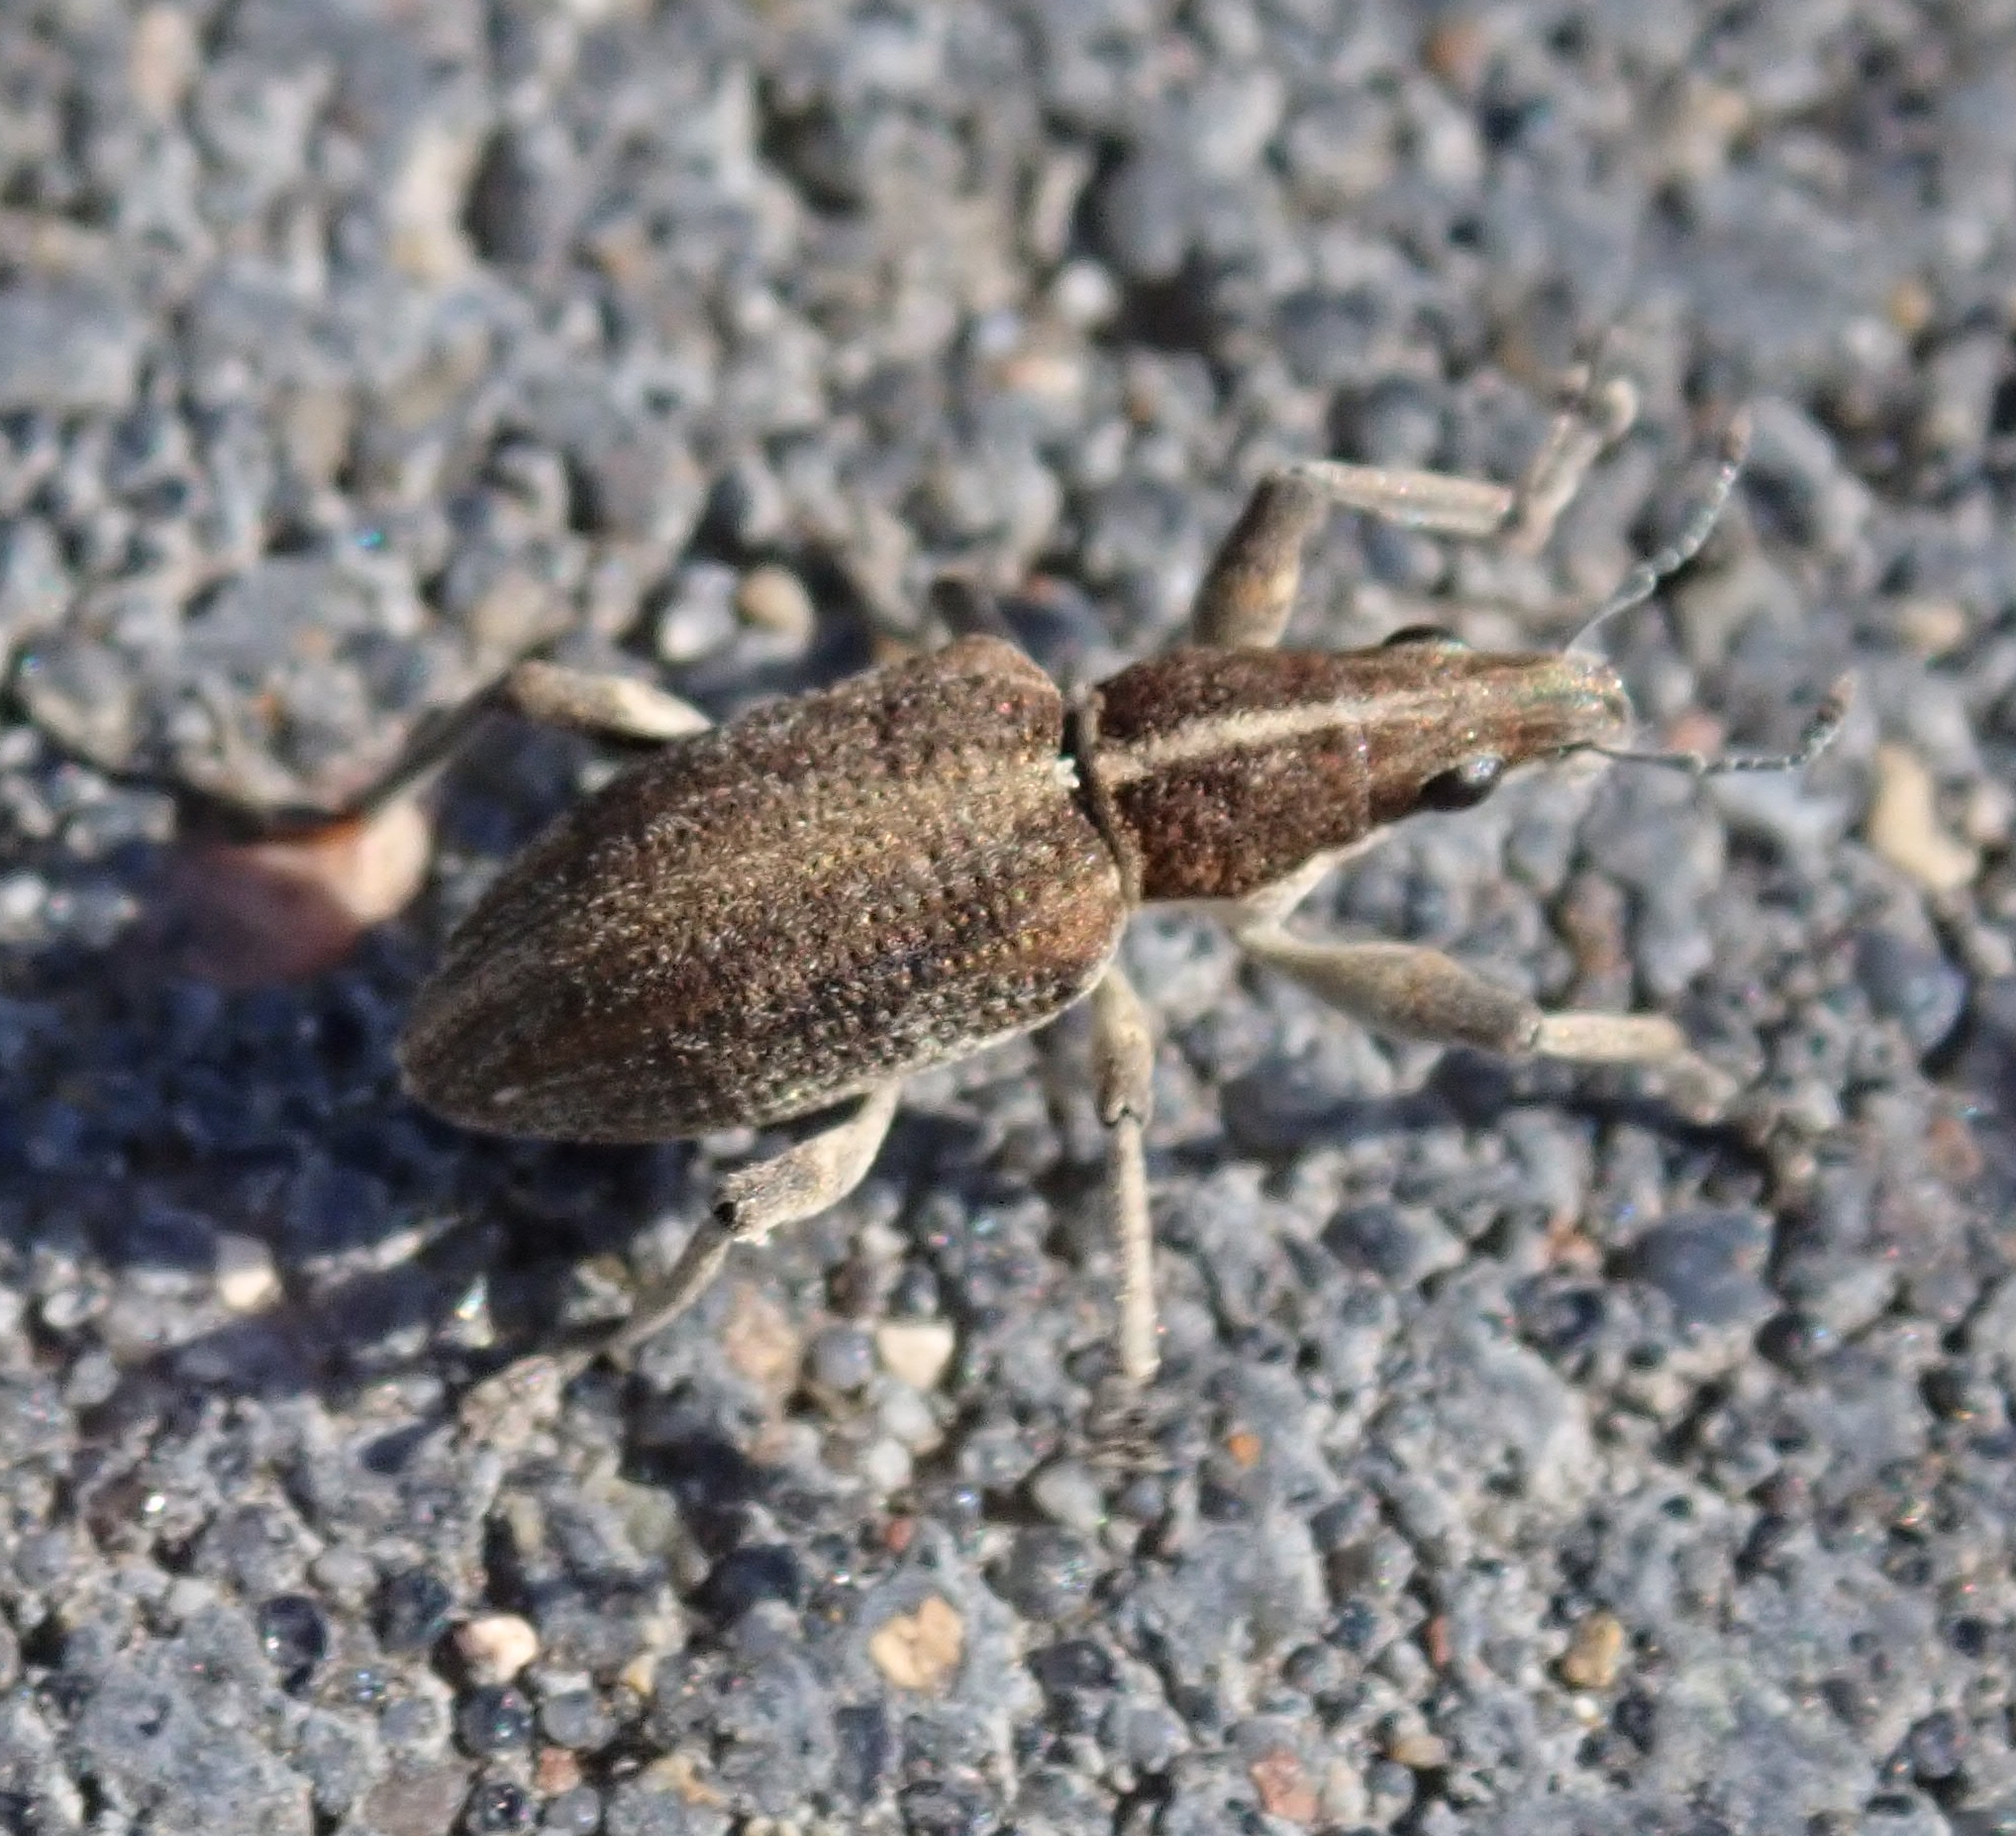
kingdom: Animalia
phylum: Arthropoda
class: Insecta
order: Coleoptera
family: Curculionidae
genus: Charagmus
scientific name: Charagmus gressorius
